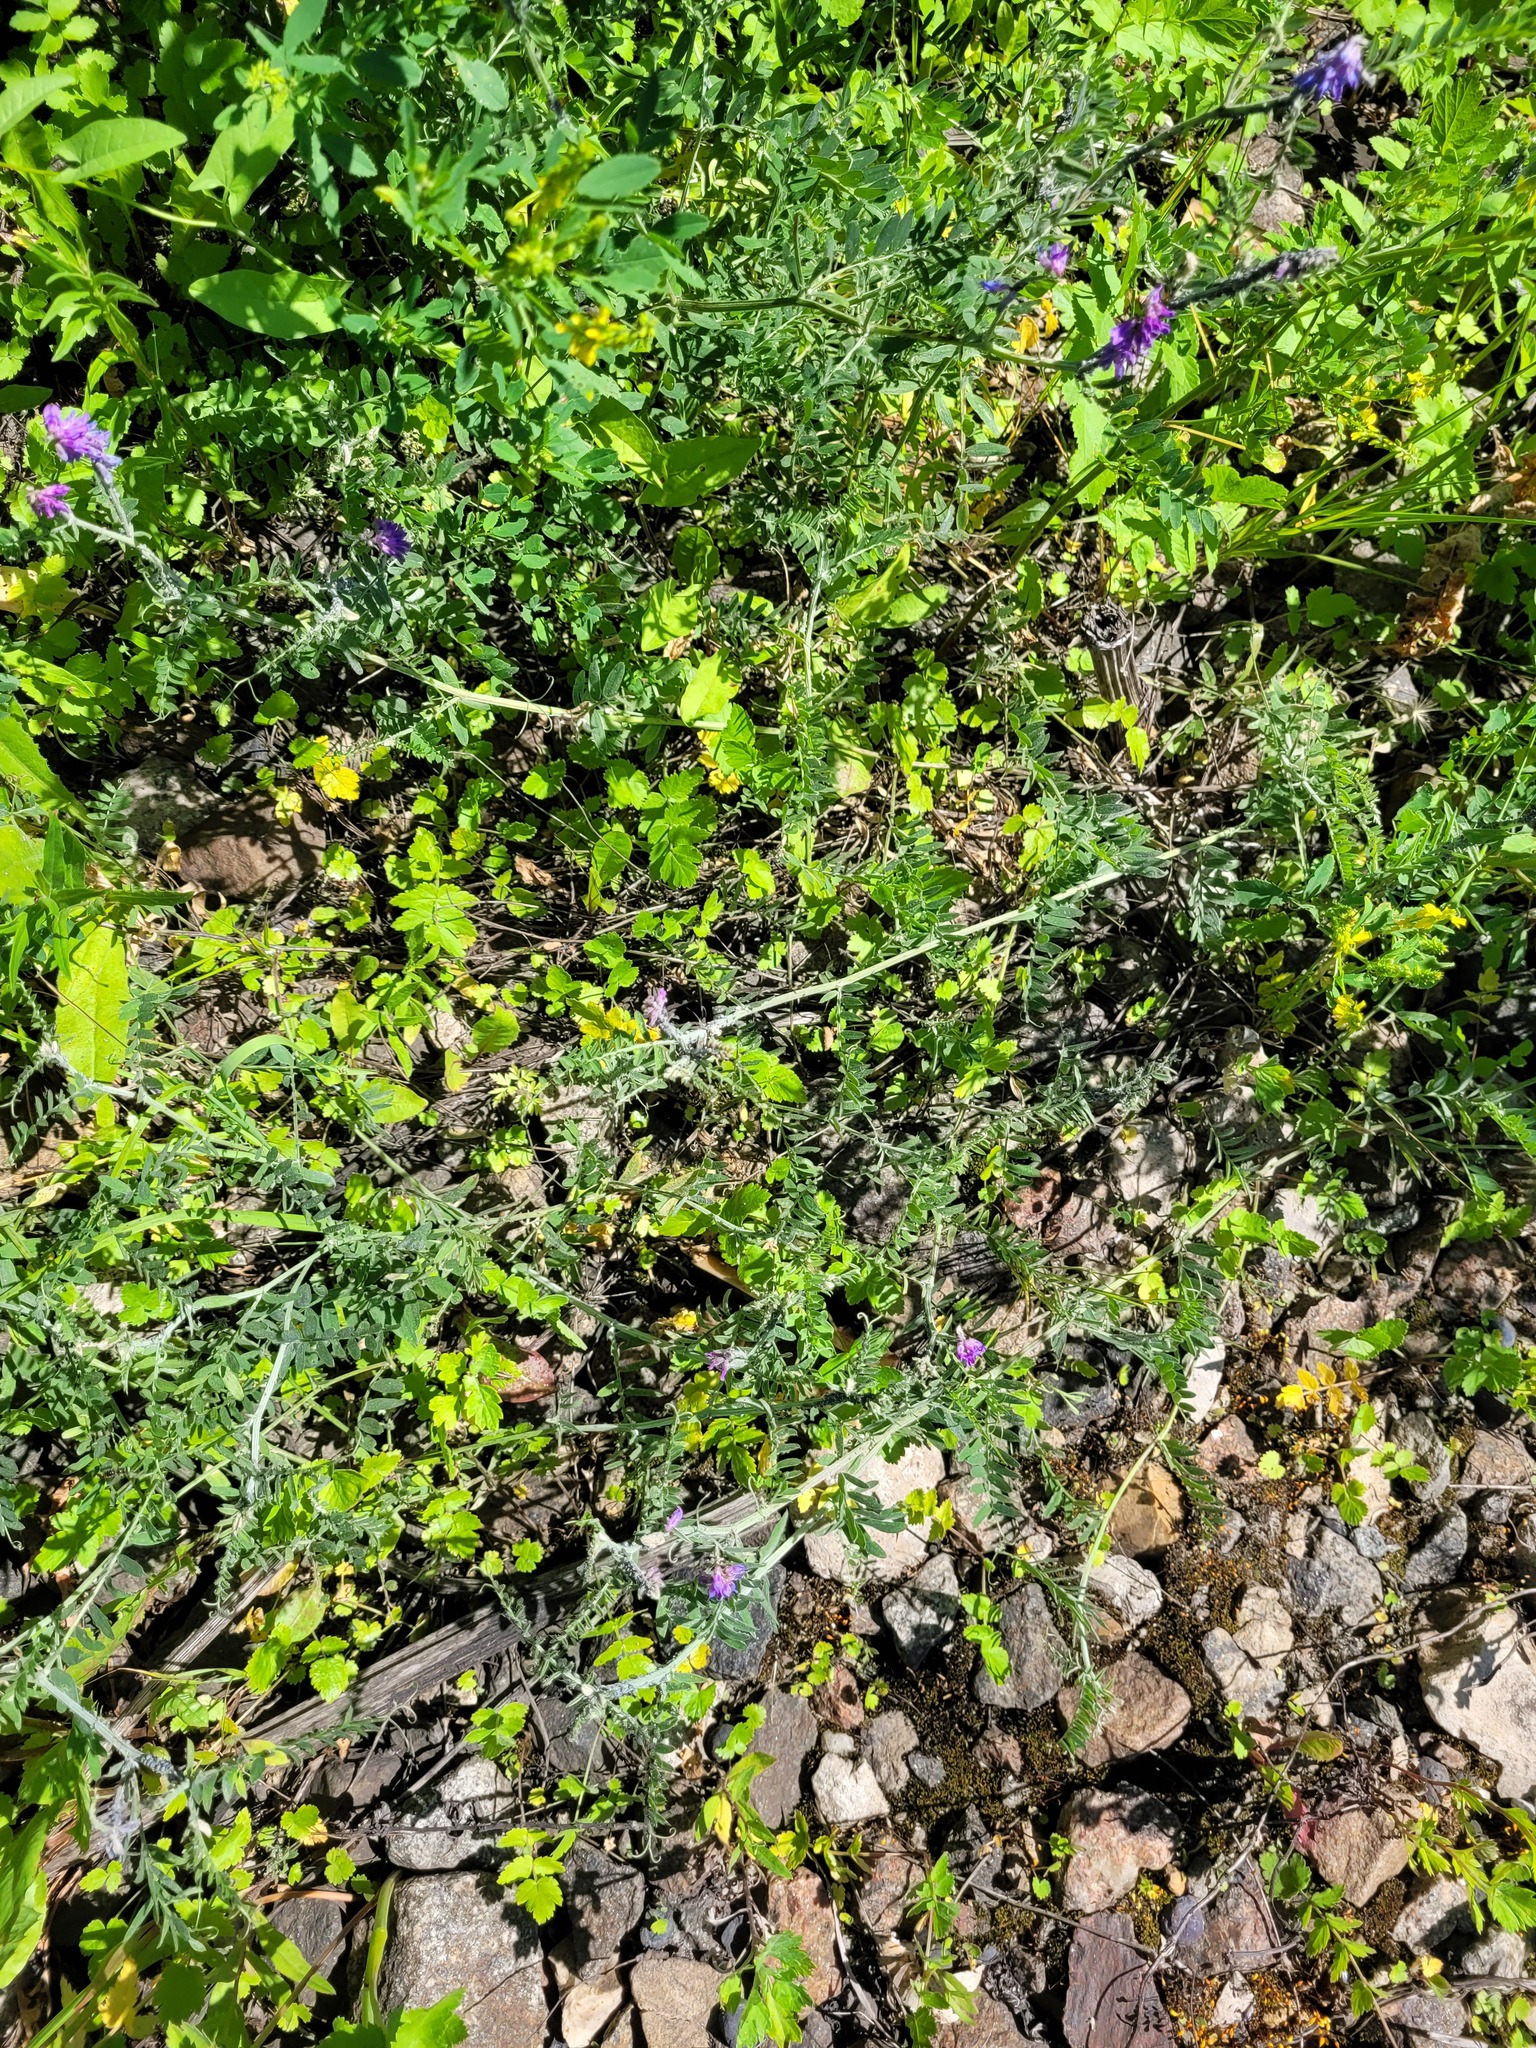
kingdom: Plantae
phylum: Tracheophyta
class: Magnoliopsida
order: Fabales
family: Fabaceae
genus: Vicia
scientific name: Vicia cracca
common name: Bird vetch
